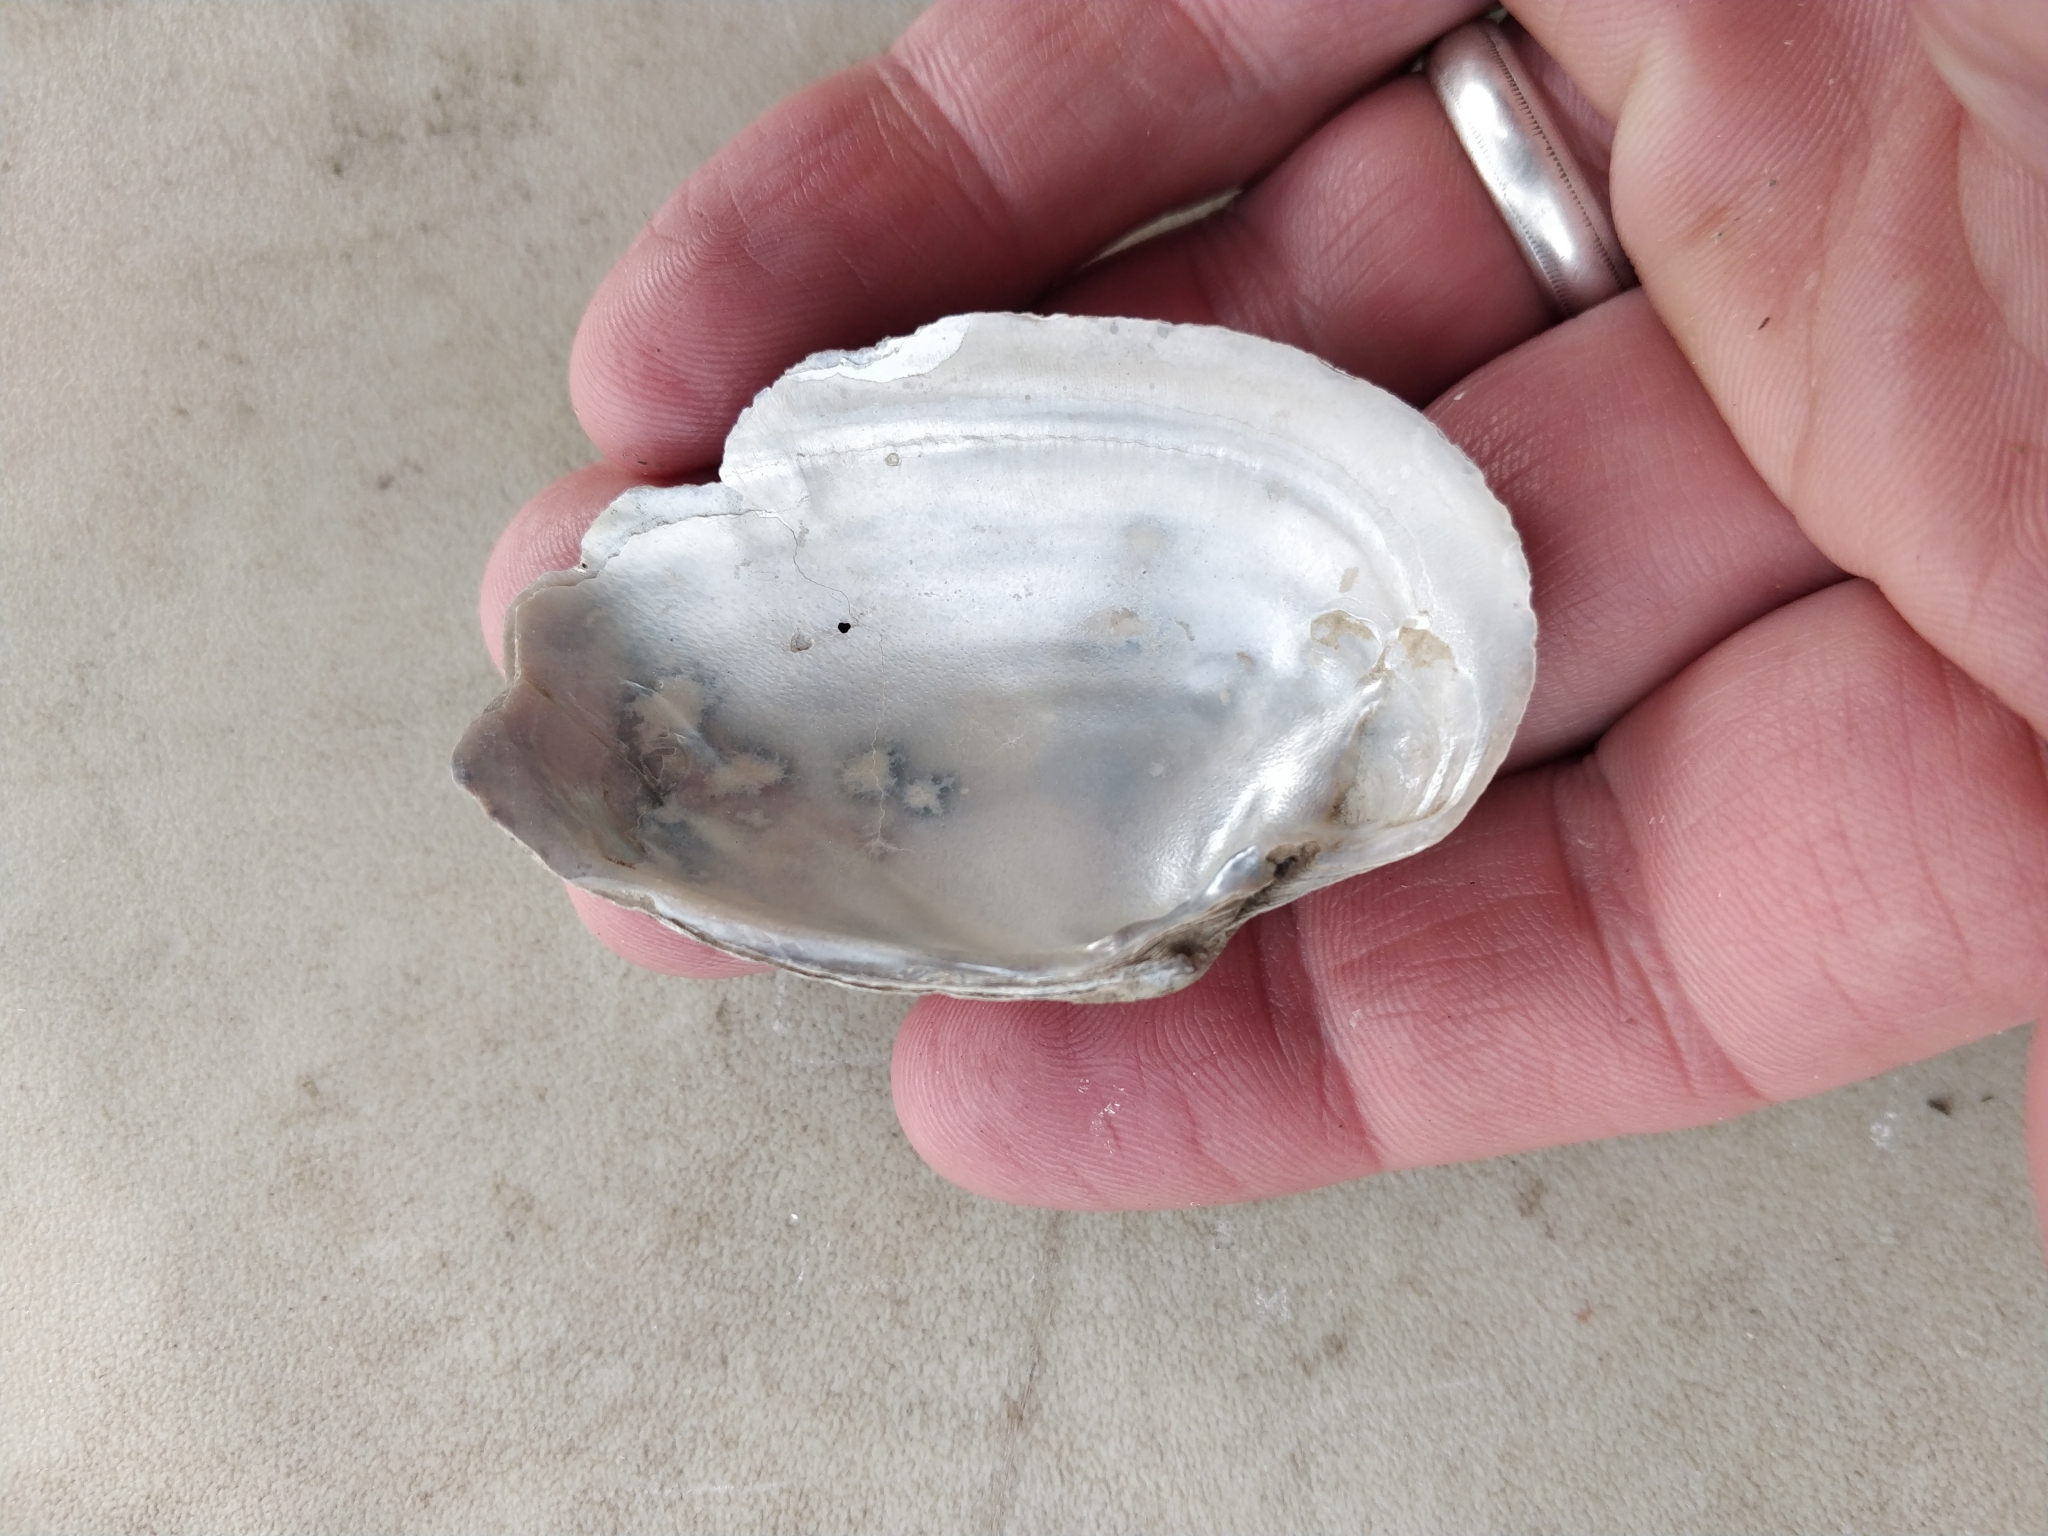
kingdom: Animalia
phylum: Mollusca
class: Bivalvia
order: Unionida
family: Unionidae
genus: Strophitus
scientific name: Strophitus undulatus
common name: Creeper
